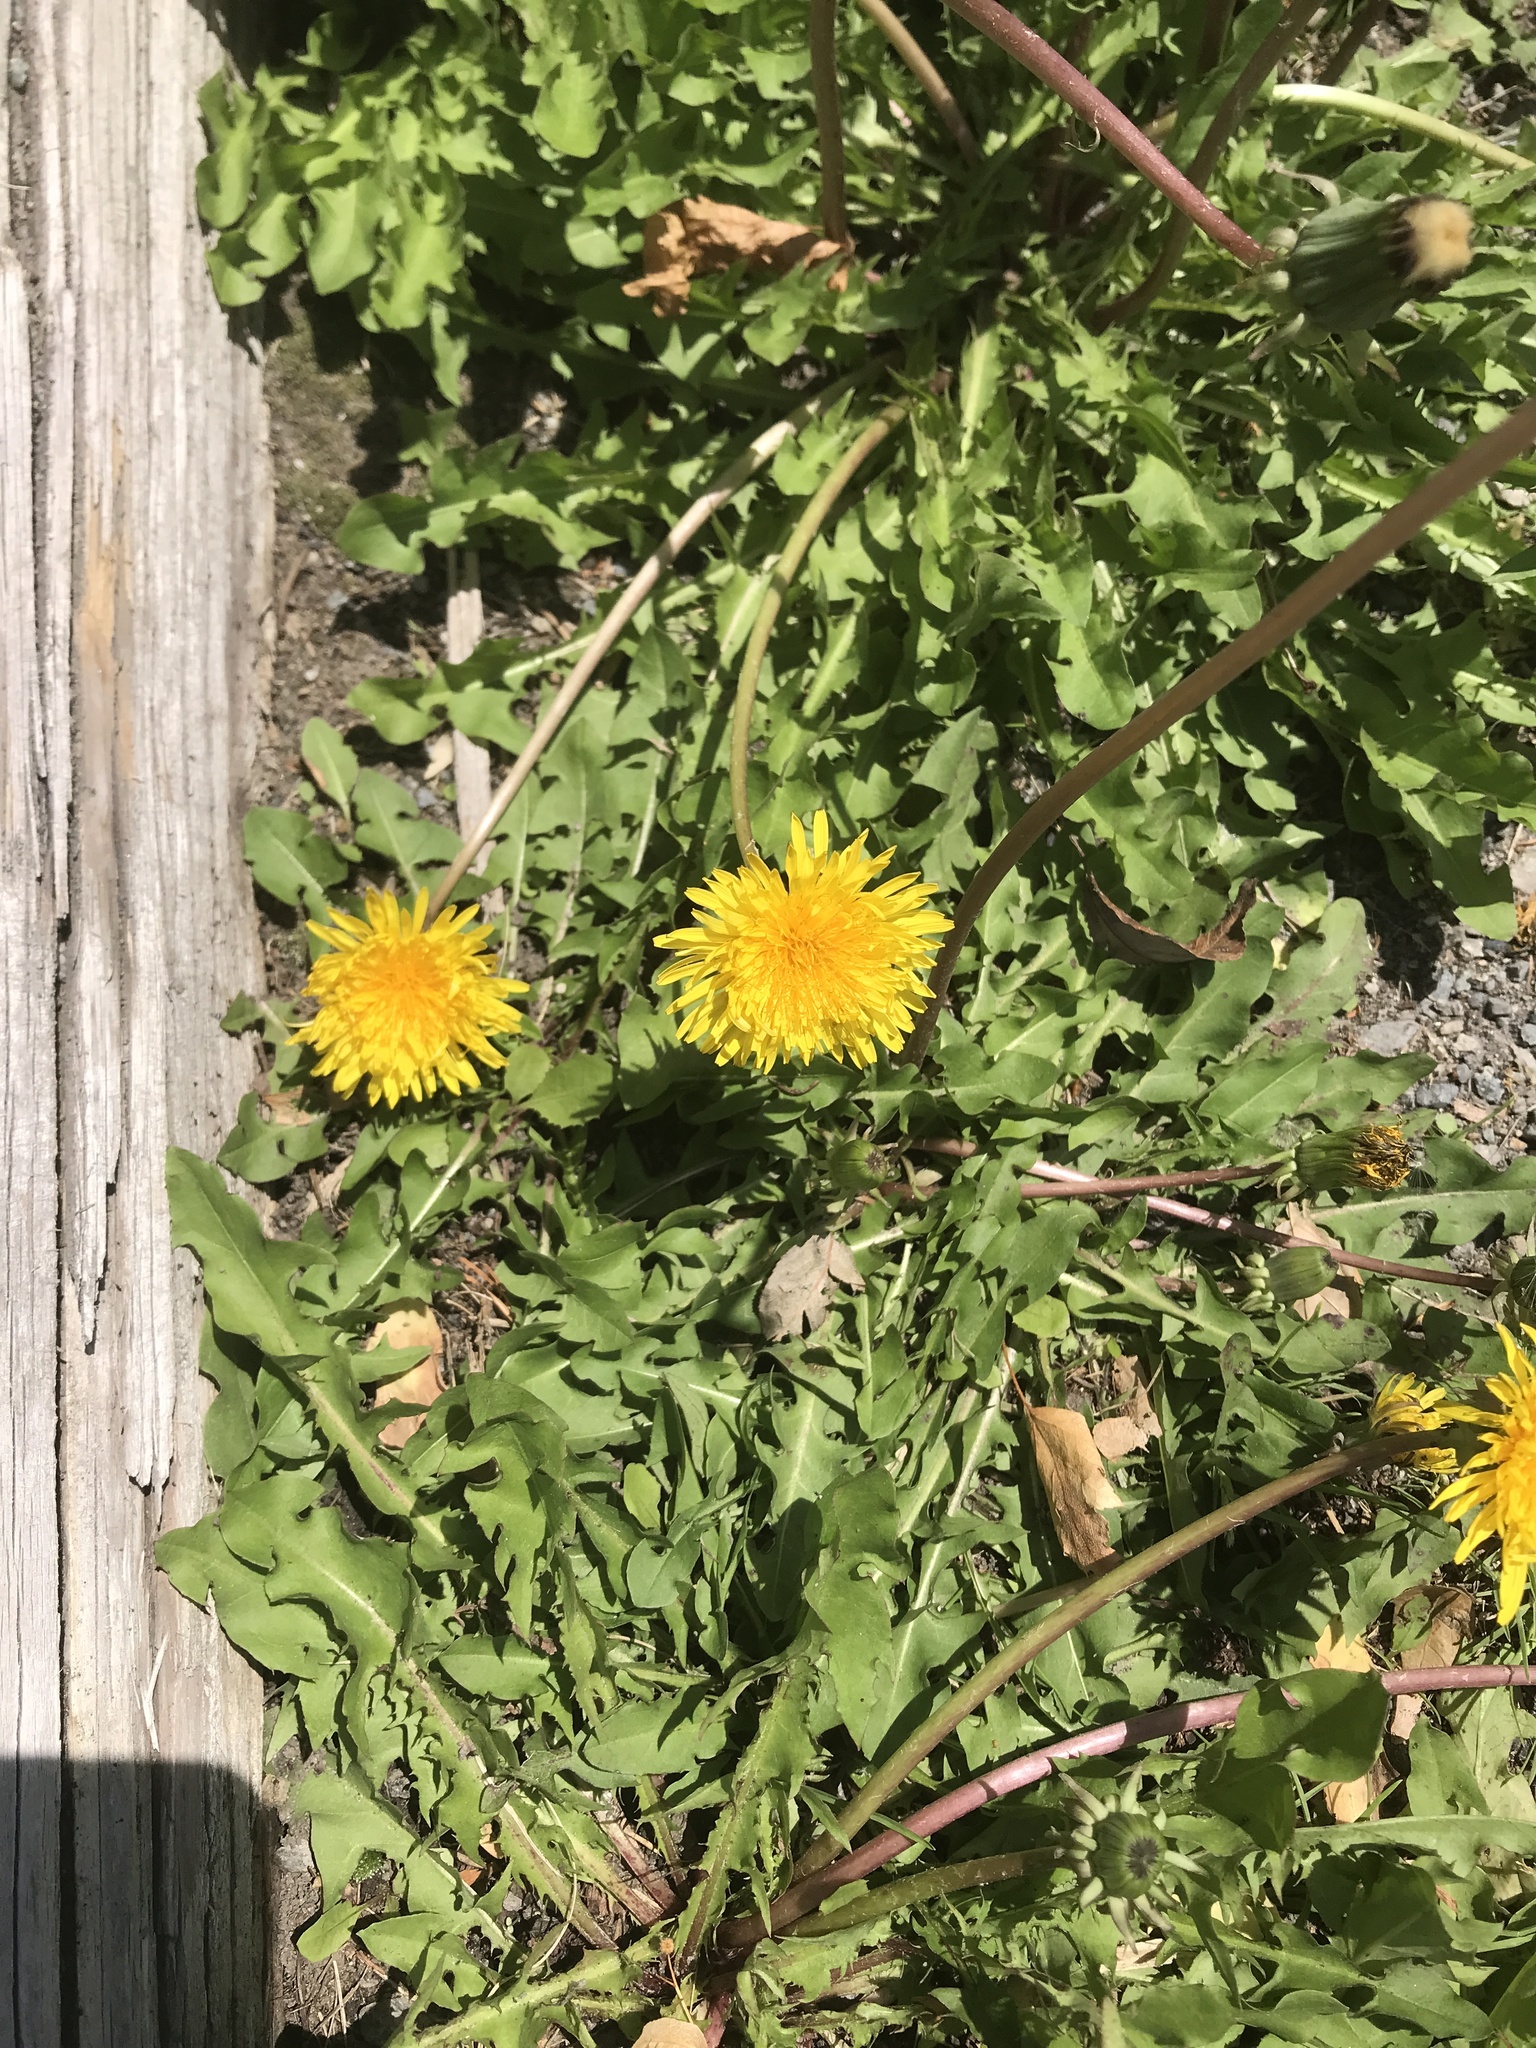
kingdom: Plantae
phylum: Tracheophyta
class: Magnoliopsida
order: Asterales
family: Asteraceae
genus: Taraxacum
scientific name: Taraxacum officinale
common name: Common dandelion
